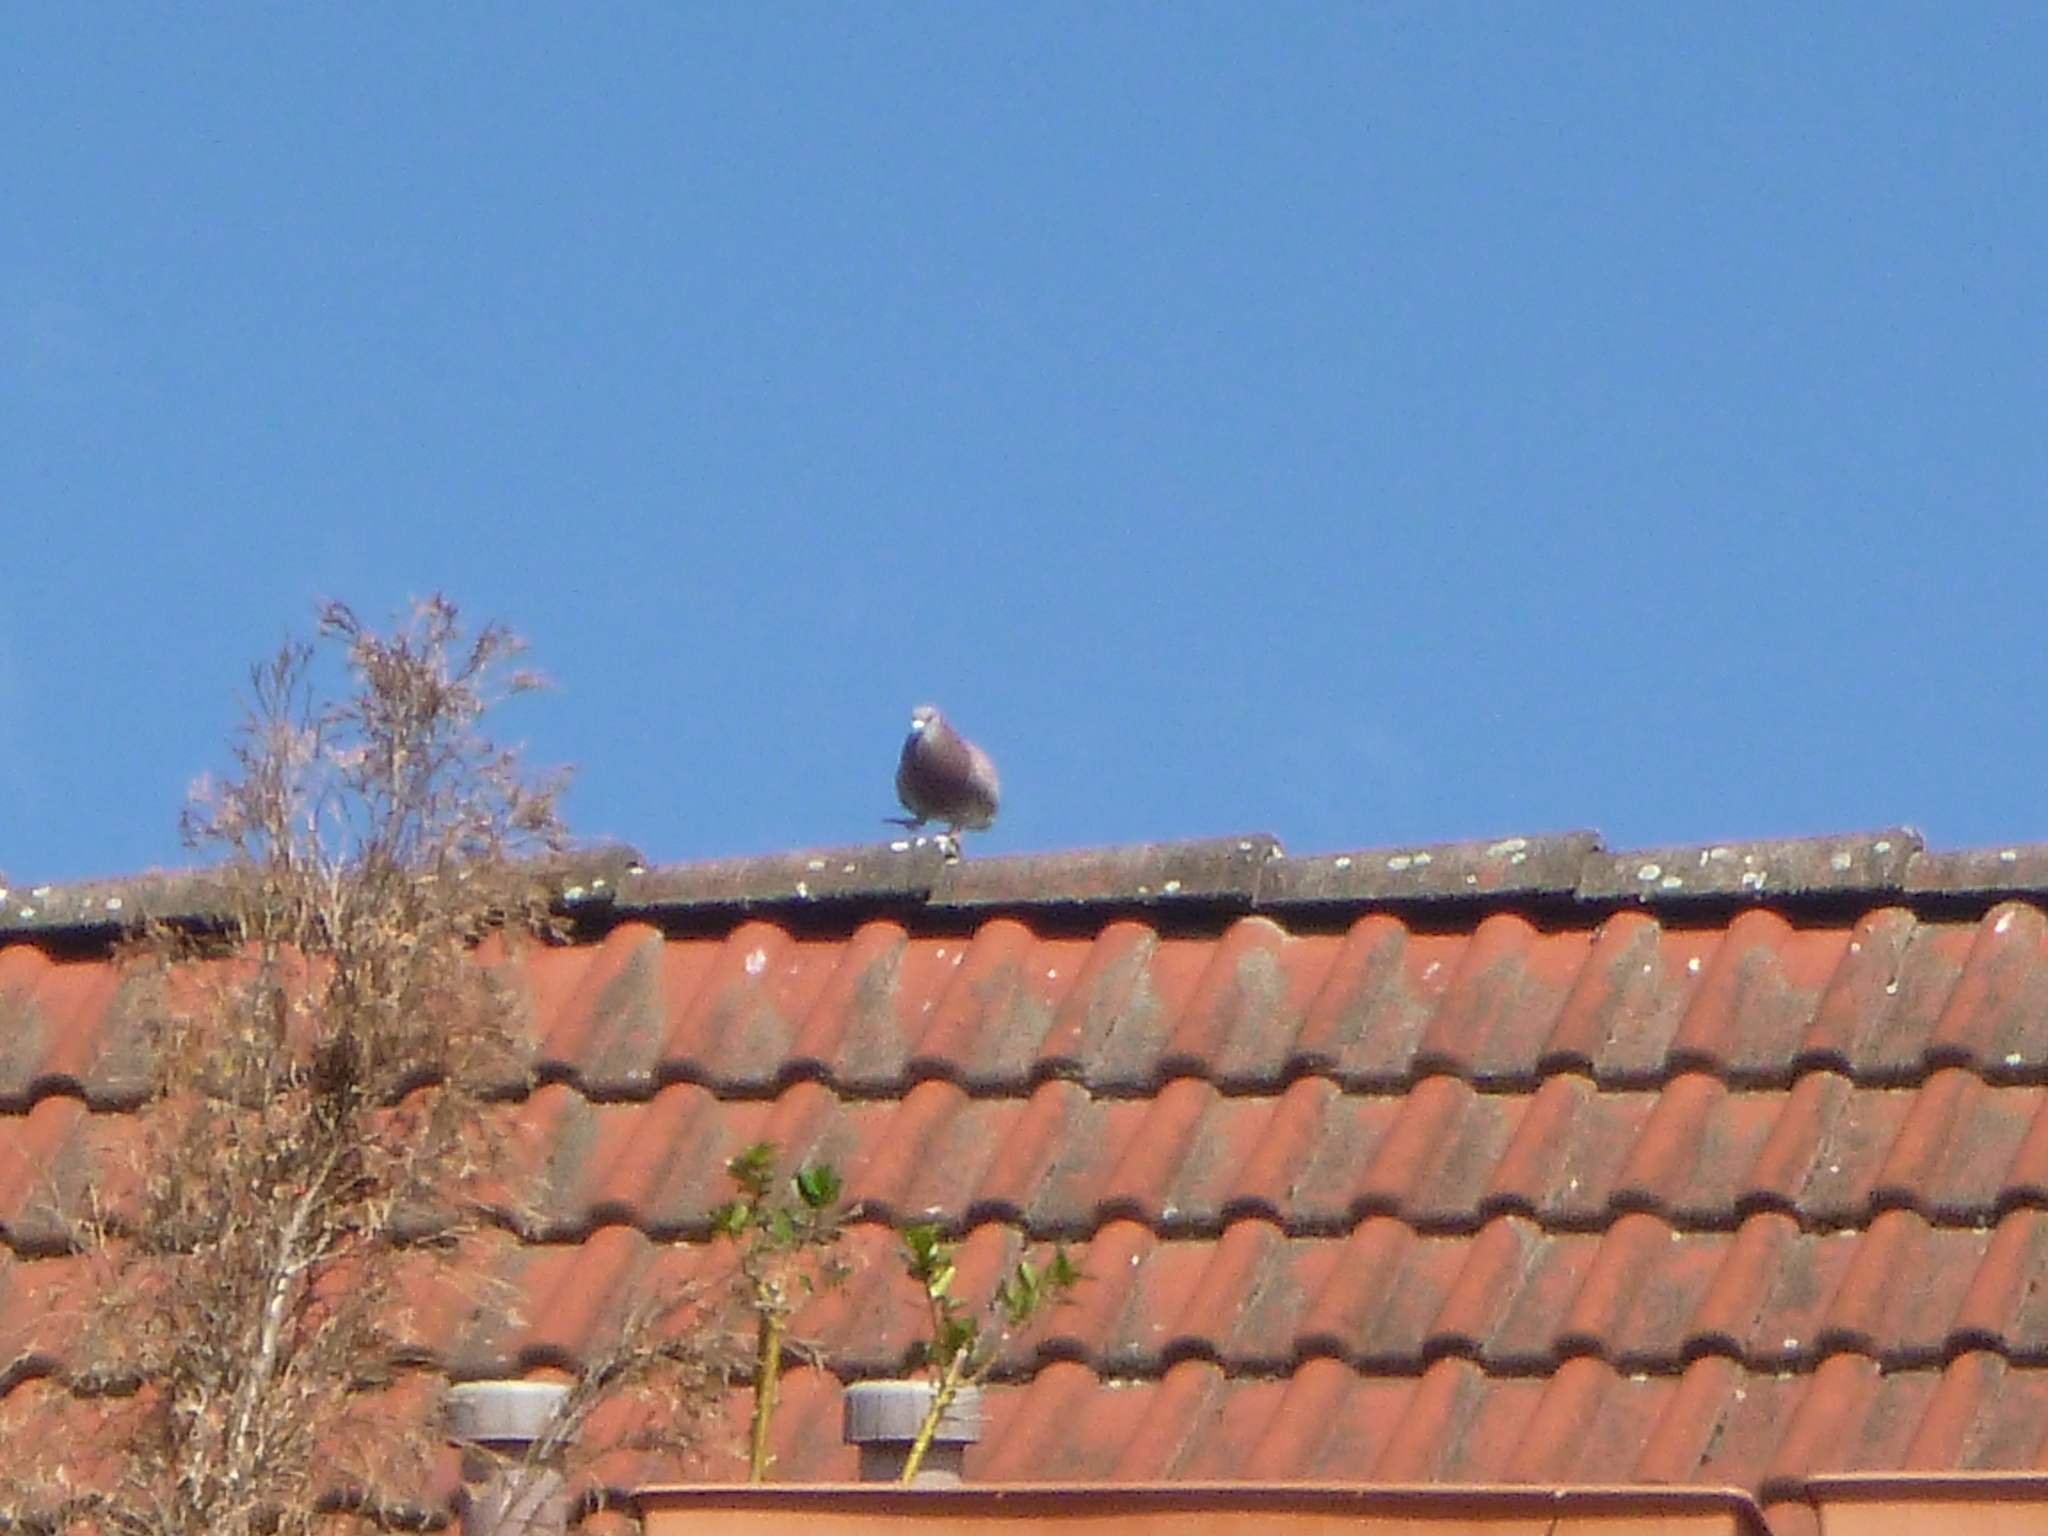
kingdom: Animalia
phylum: Chordata
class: Aves
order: Columbiformes
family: Columbidae
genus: Columba
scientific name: Columba livia
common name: Rock pigeon
